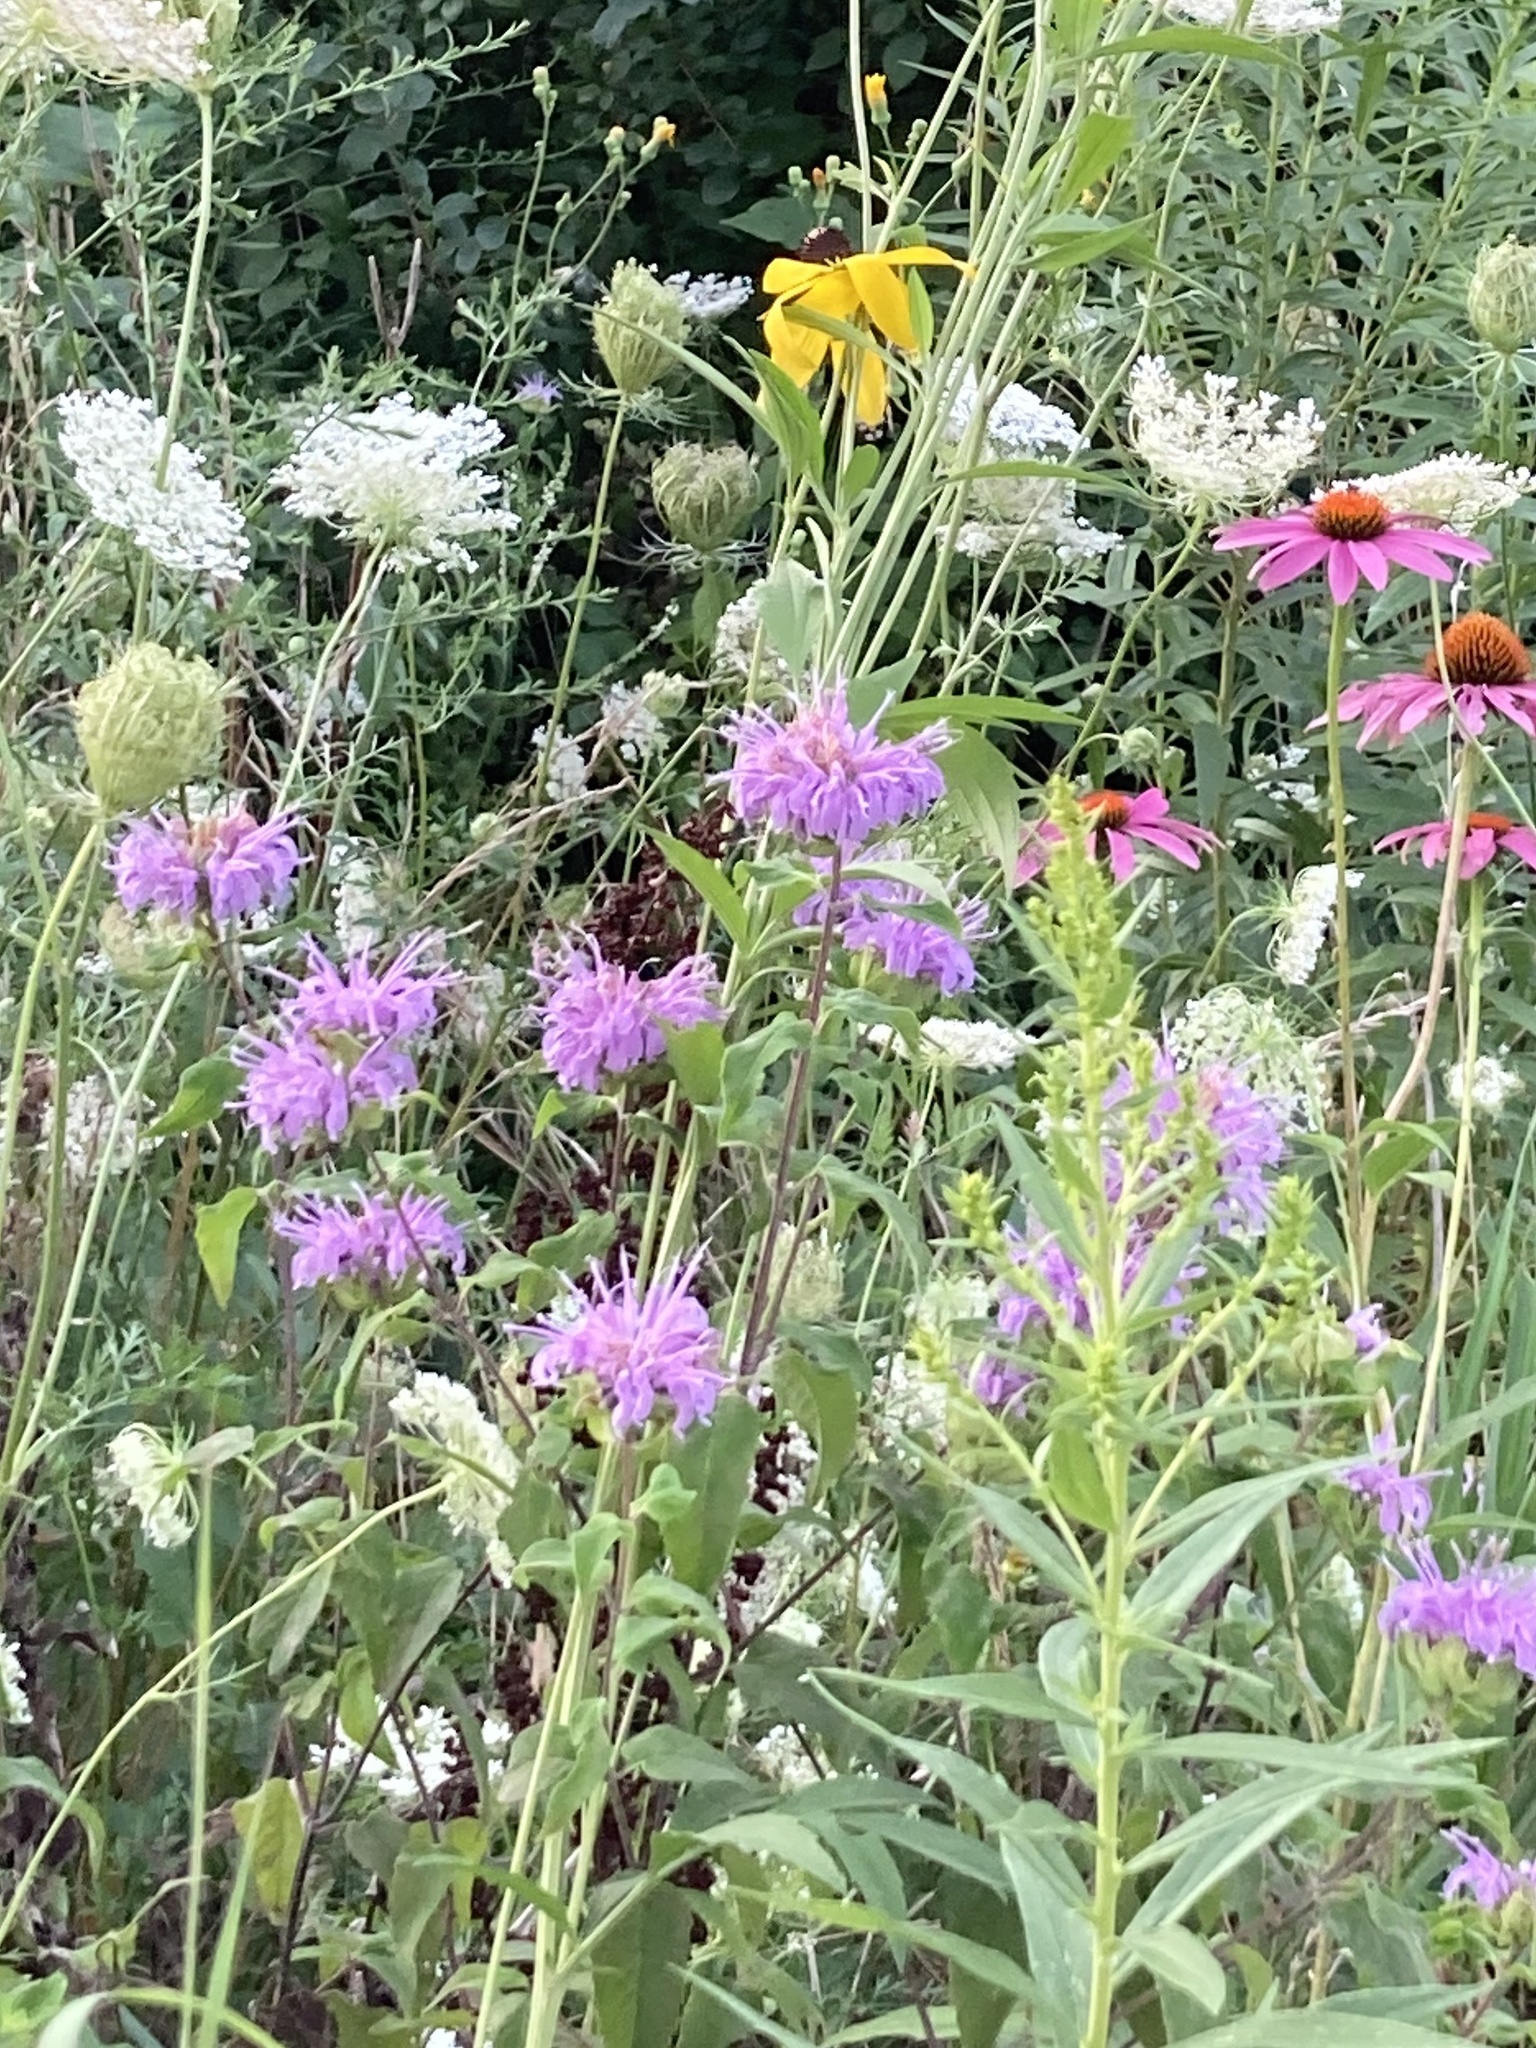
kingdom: Plantae
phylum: Tracheophyta
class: Magnoliopsida
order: Lamiales
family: Lamiaceae
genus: Monarda
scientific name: Monarda fistulosa
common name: Purple beebalm
